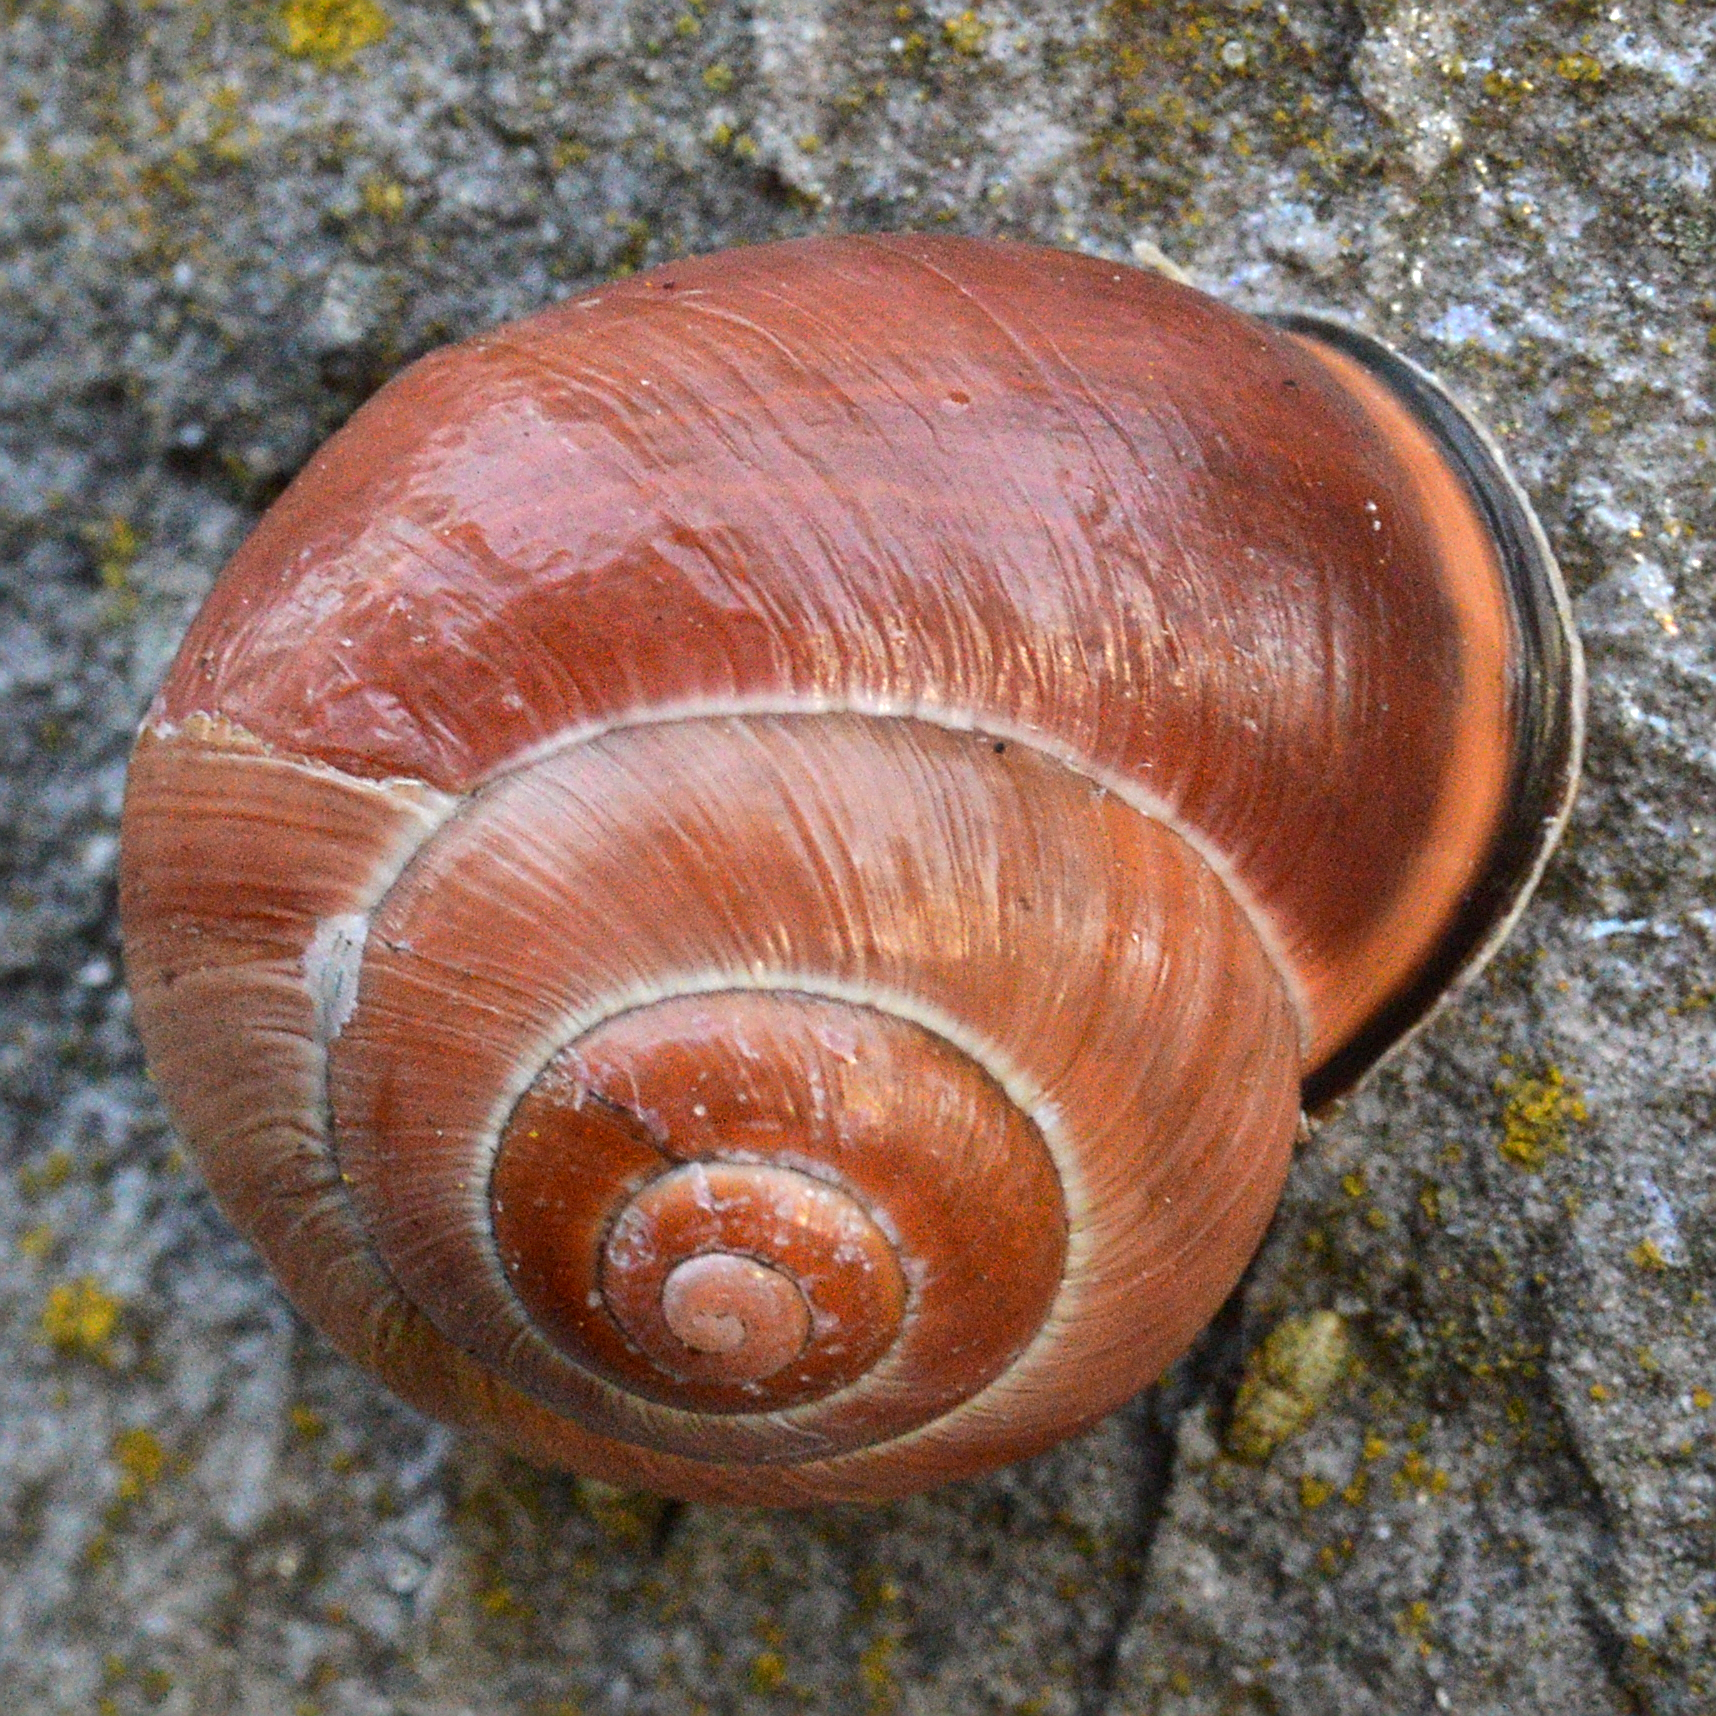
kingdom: Animalia
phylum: Mollusca
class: Gastropoda
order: Stylommatophora
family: Helicidae
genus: Cepaea
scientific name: Cepaea nemoralis
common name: Grovesnail
